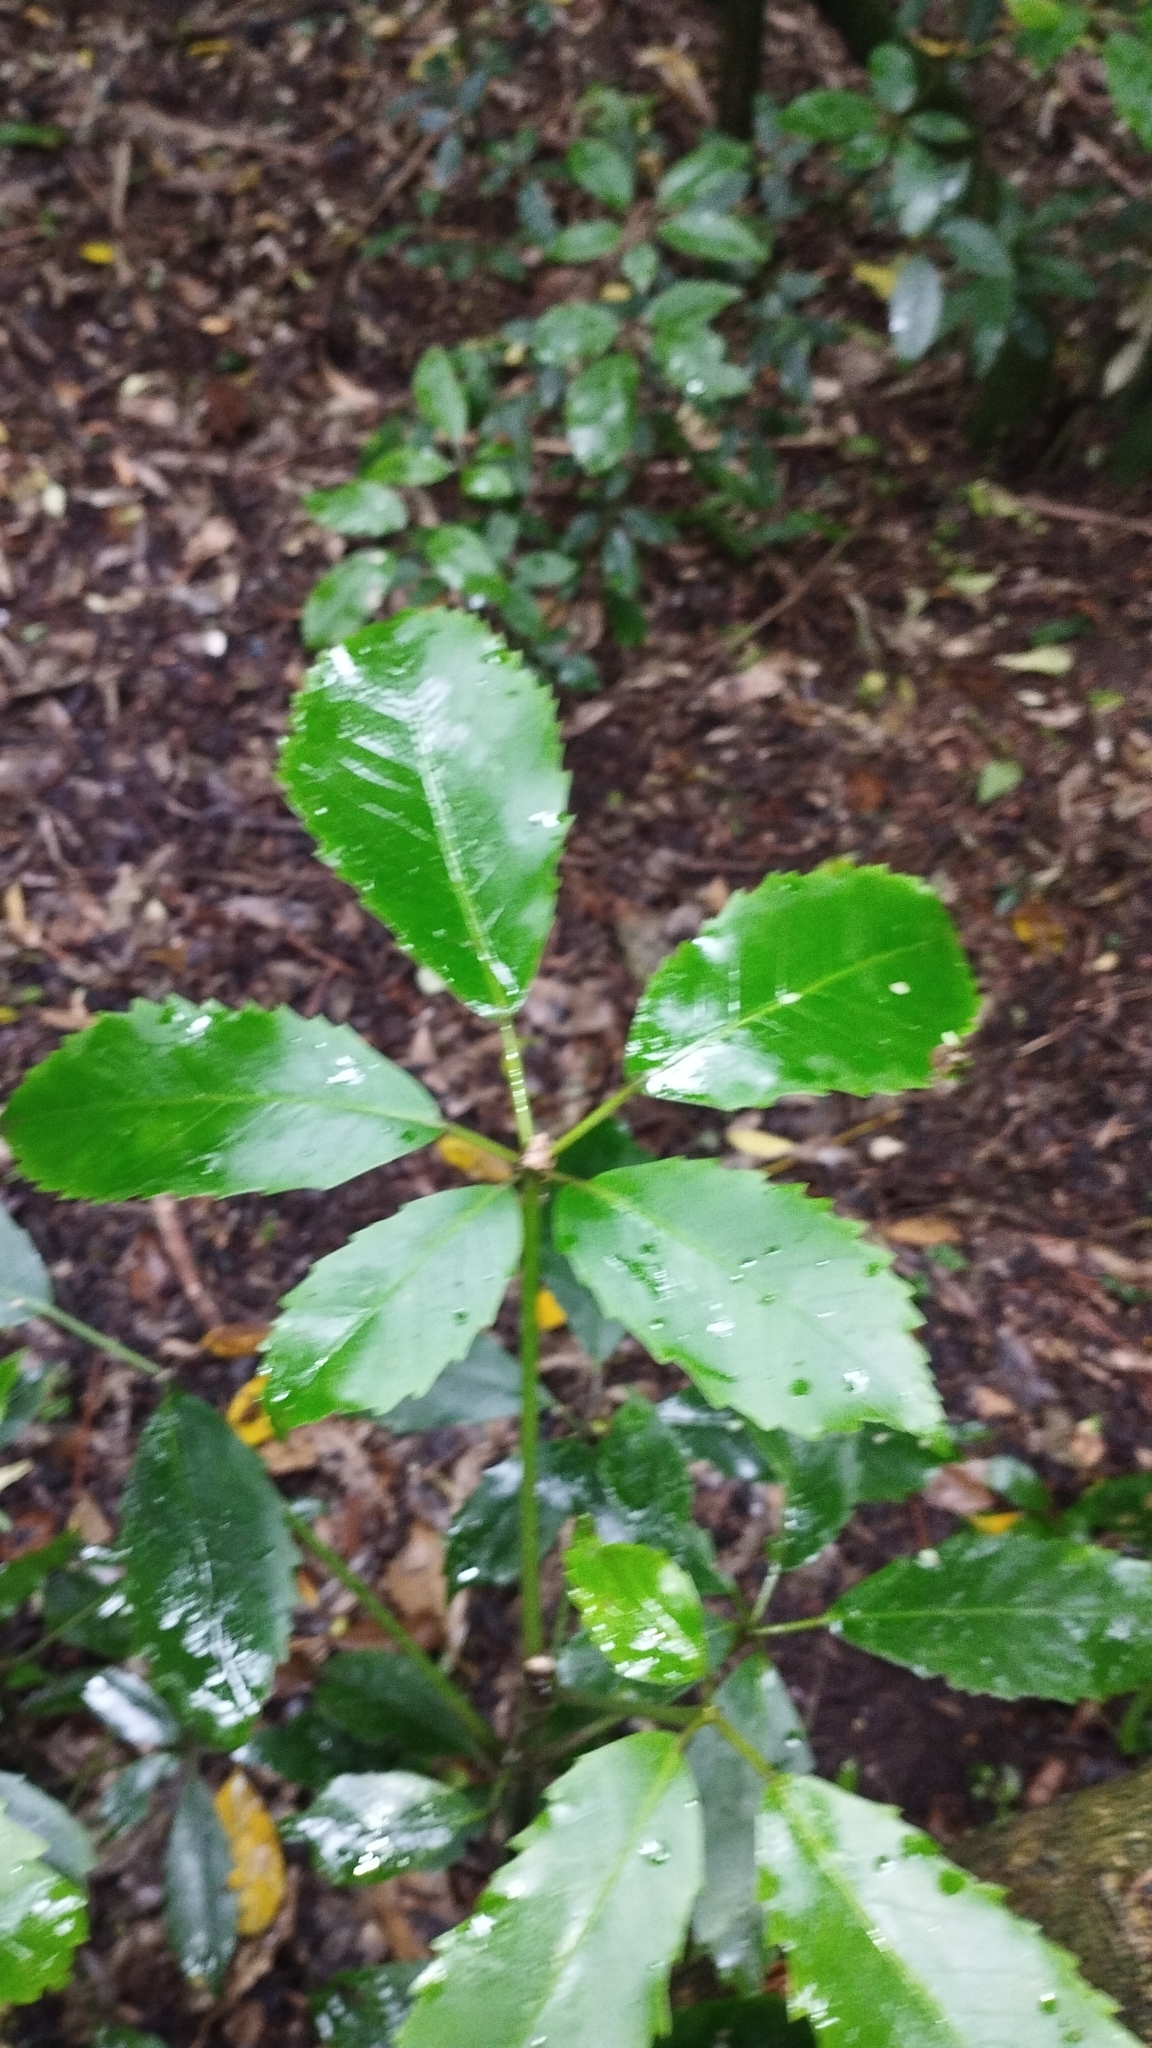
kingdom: Plantae
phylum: Tracheophyta
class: Magnoliopsida
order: Apiales
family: Araliaceae
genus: Neopanax
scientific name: Neopanax arboreus
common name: Five-fingers
